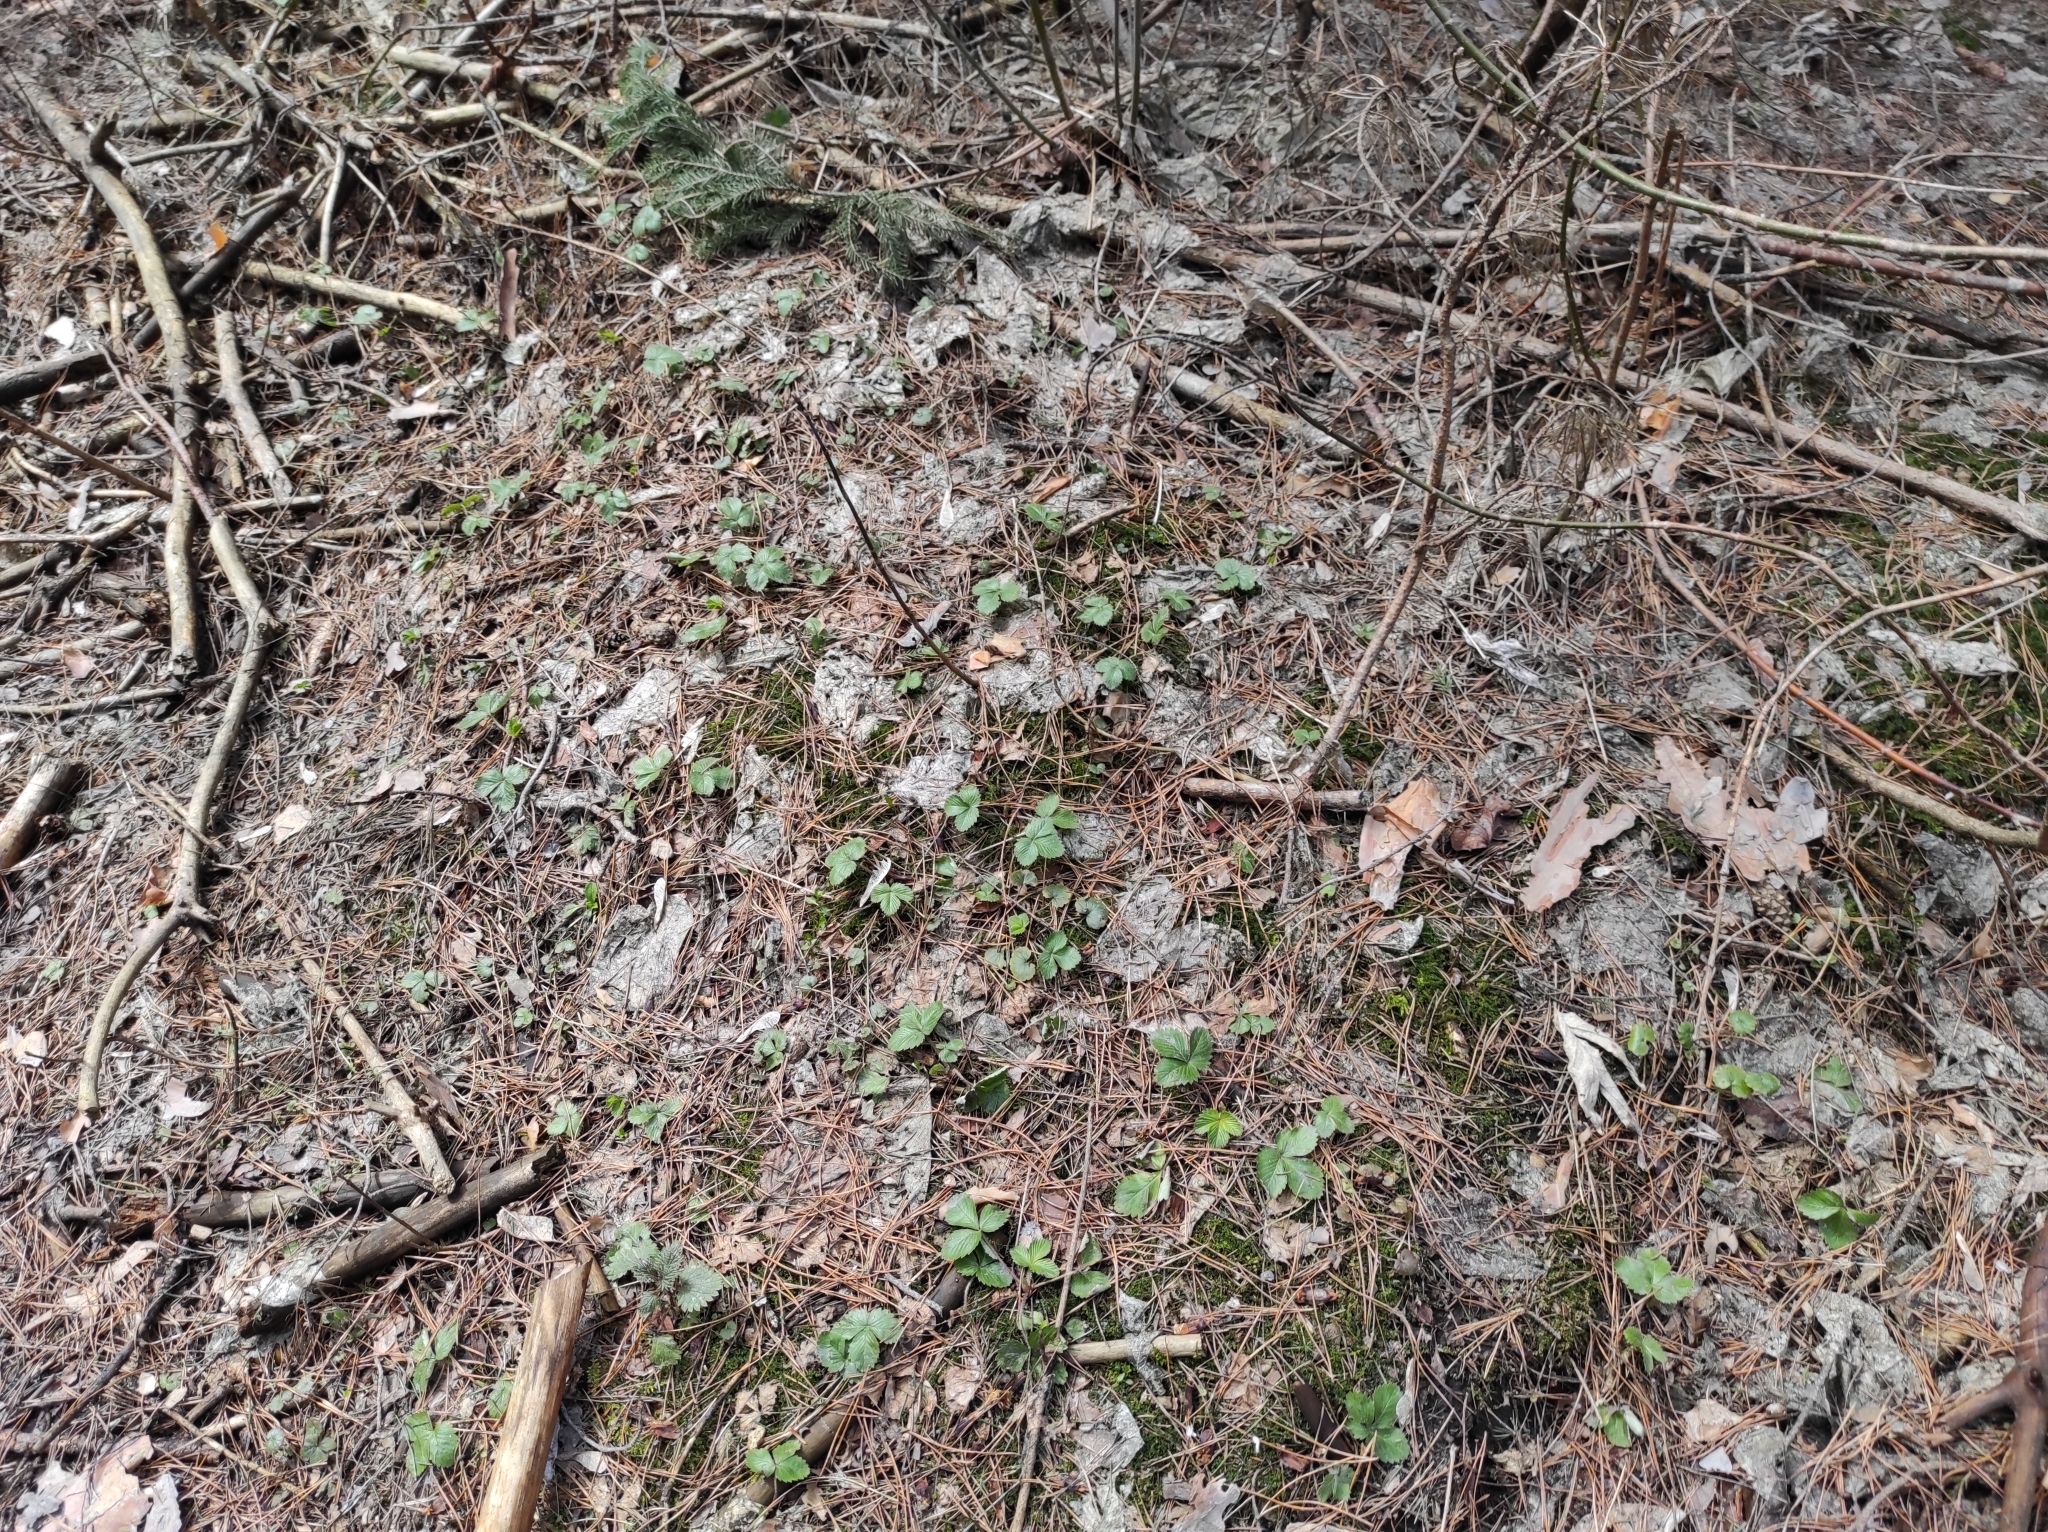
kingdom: Plantae
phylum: Tracheophyta
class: Magnoliopsida
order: Rosales
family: Rosaceae
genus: Fragaria
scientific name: Fragaria vesca
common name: Wild strawberry
